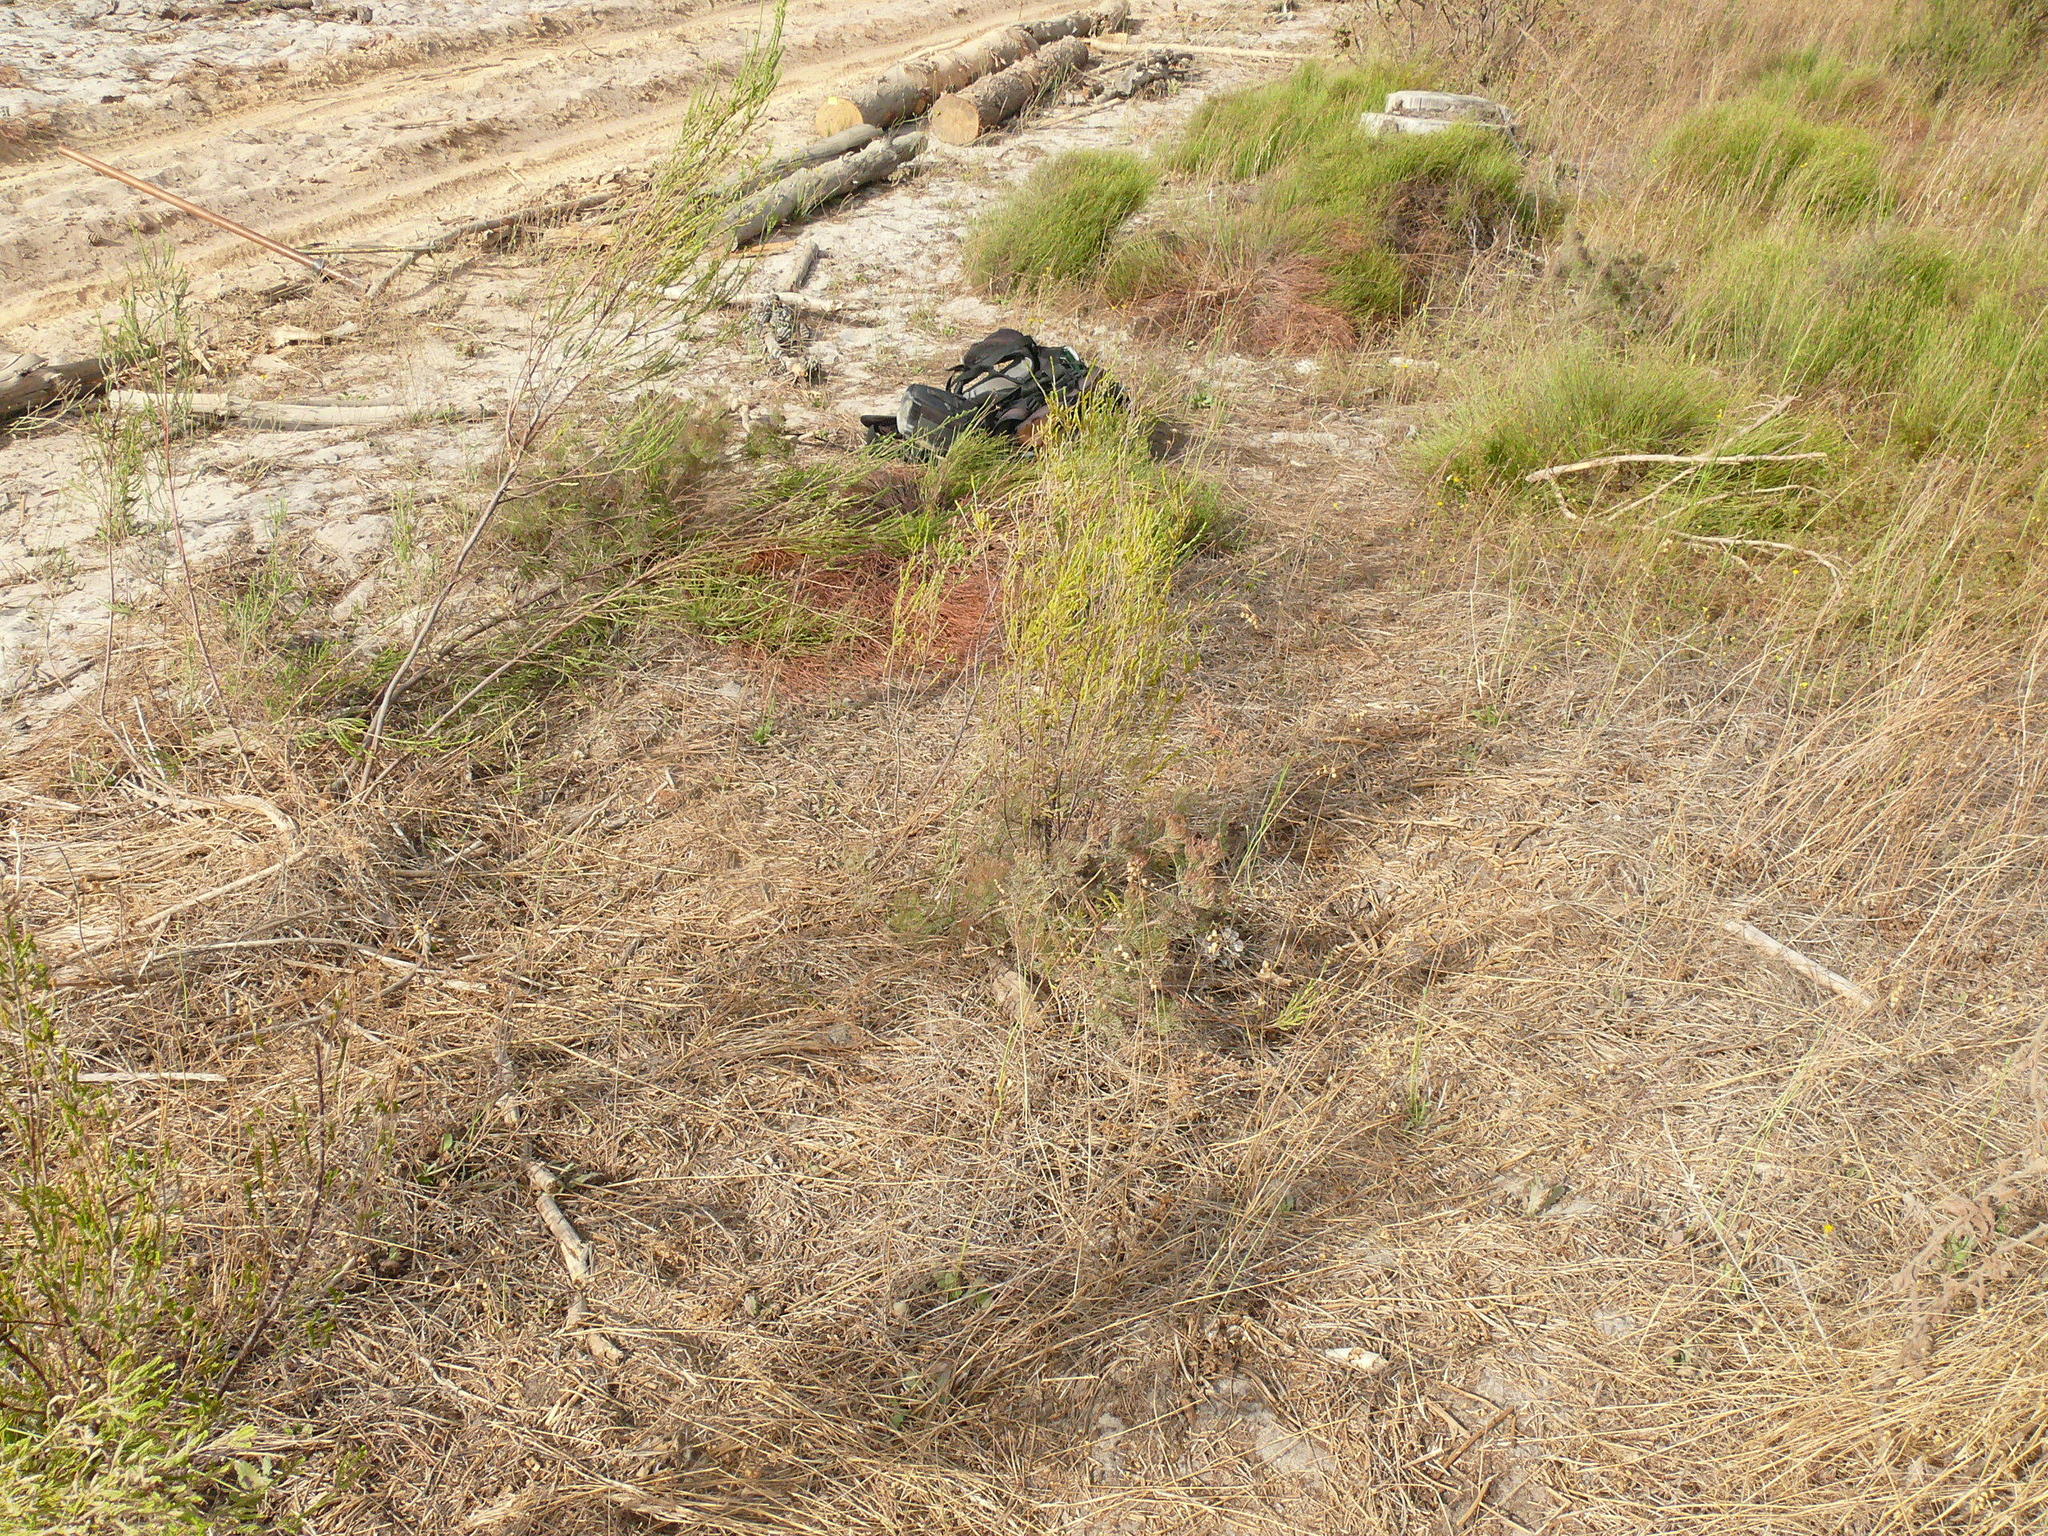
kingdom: Plantae
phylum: Tracheophyta
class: Magnoliopsida
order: Proteales
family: Proteaceae
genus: Serruria
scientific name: Serruria fasciflora
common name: Common pin spiderhead
